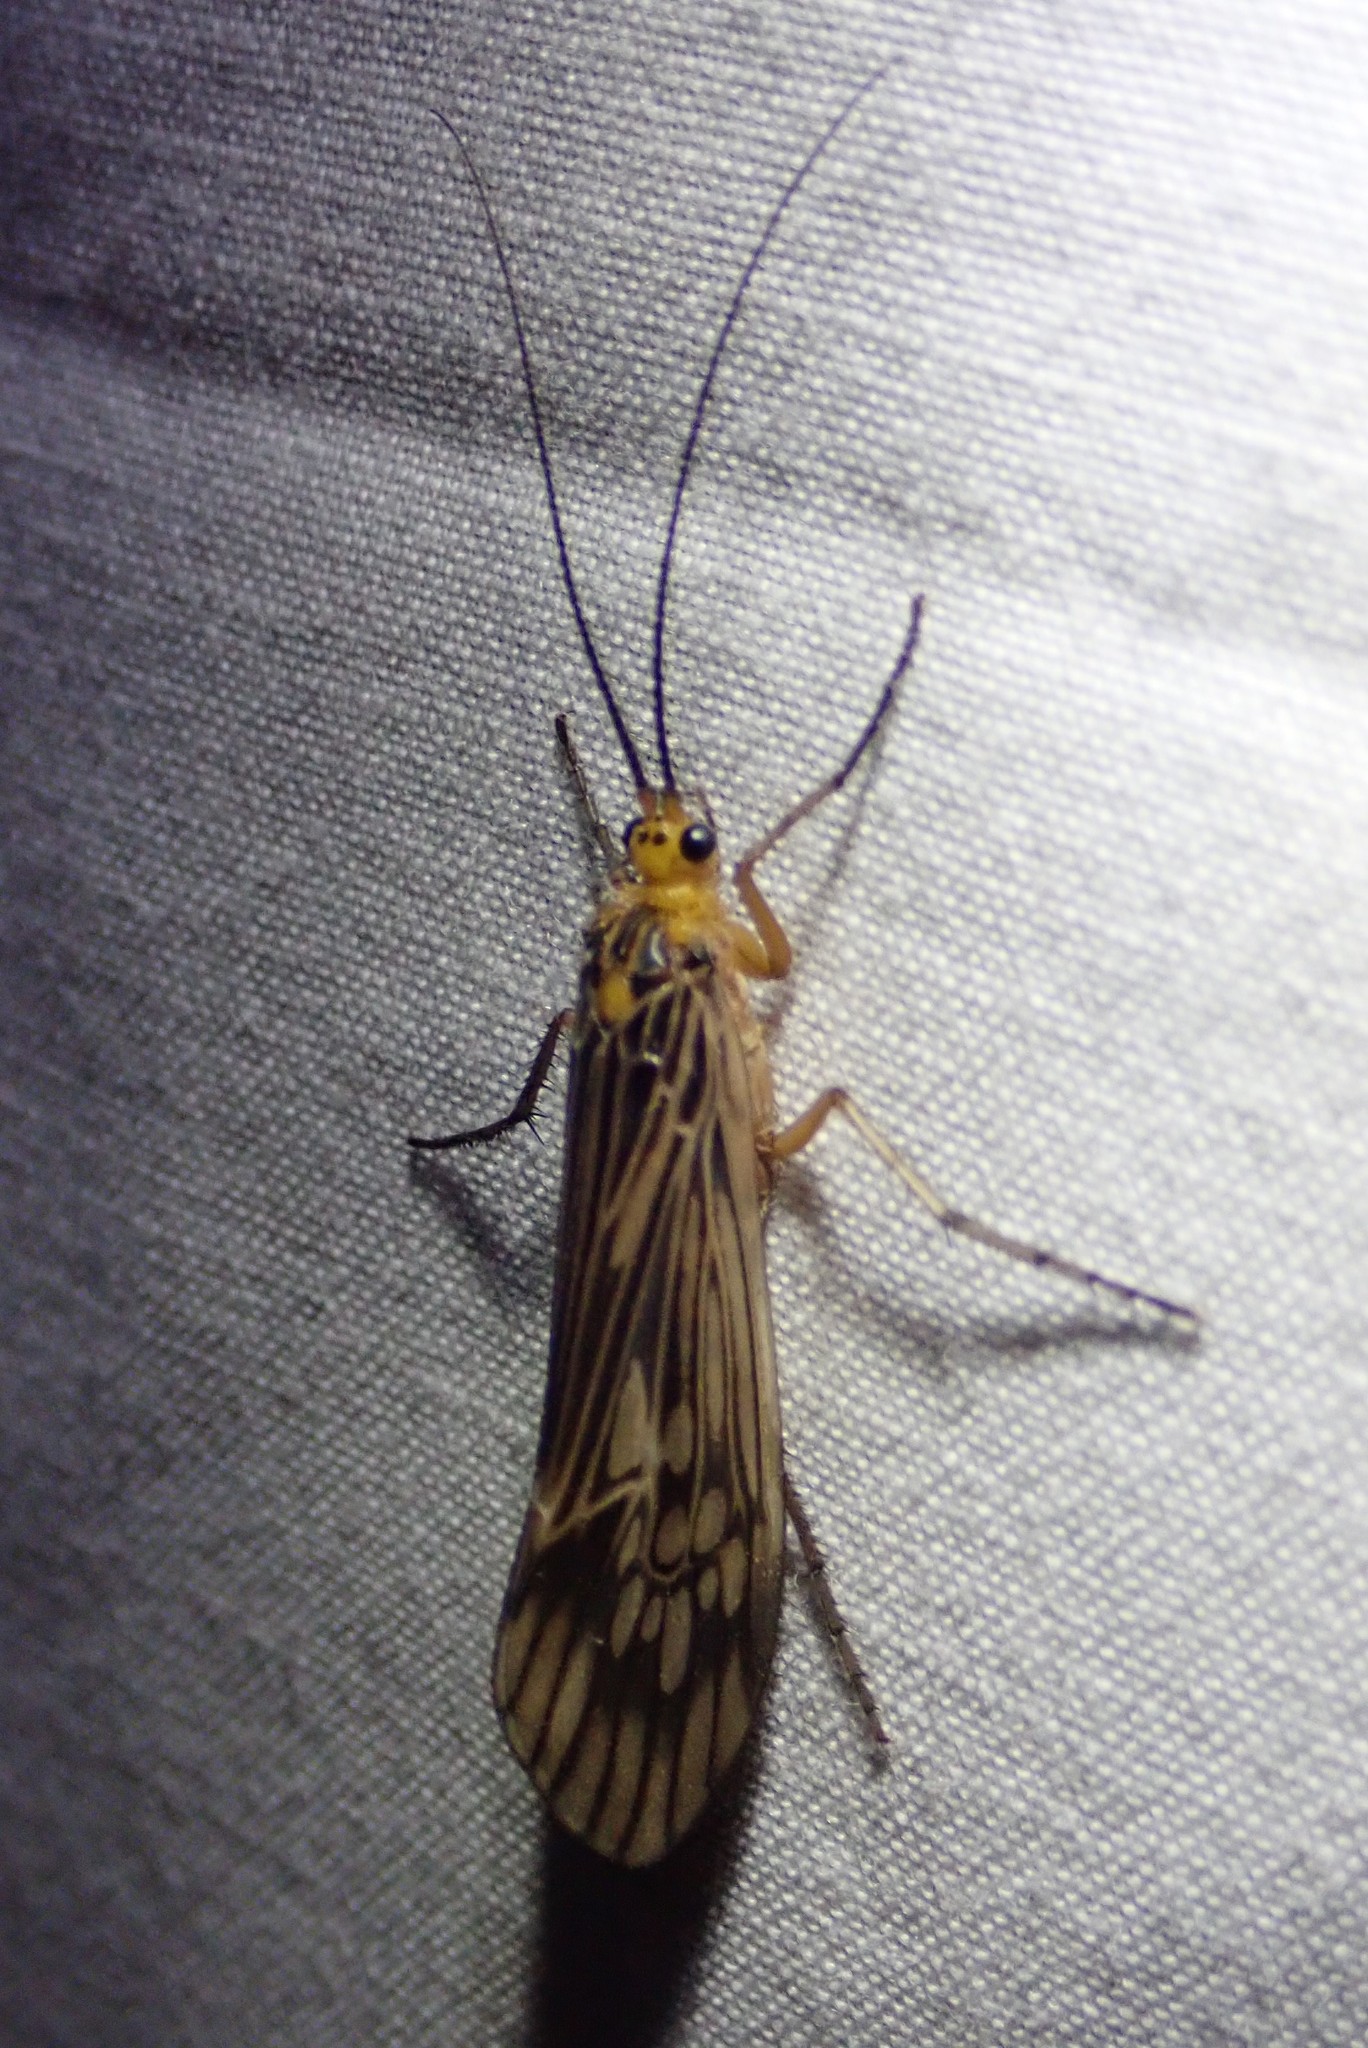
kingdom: Animalia
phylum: Arthropoda
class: Insecta
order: Trichoptera
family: Limnephilidae
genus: Hydatophylax
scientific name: Hydatophylax argus
